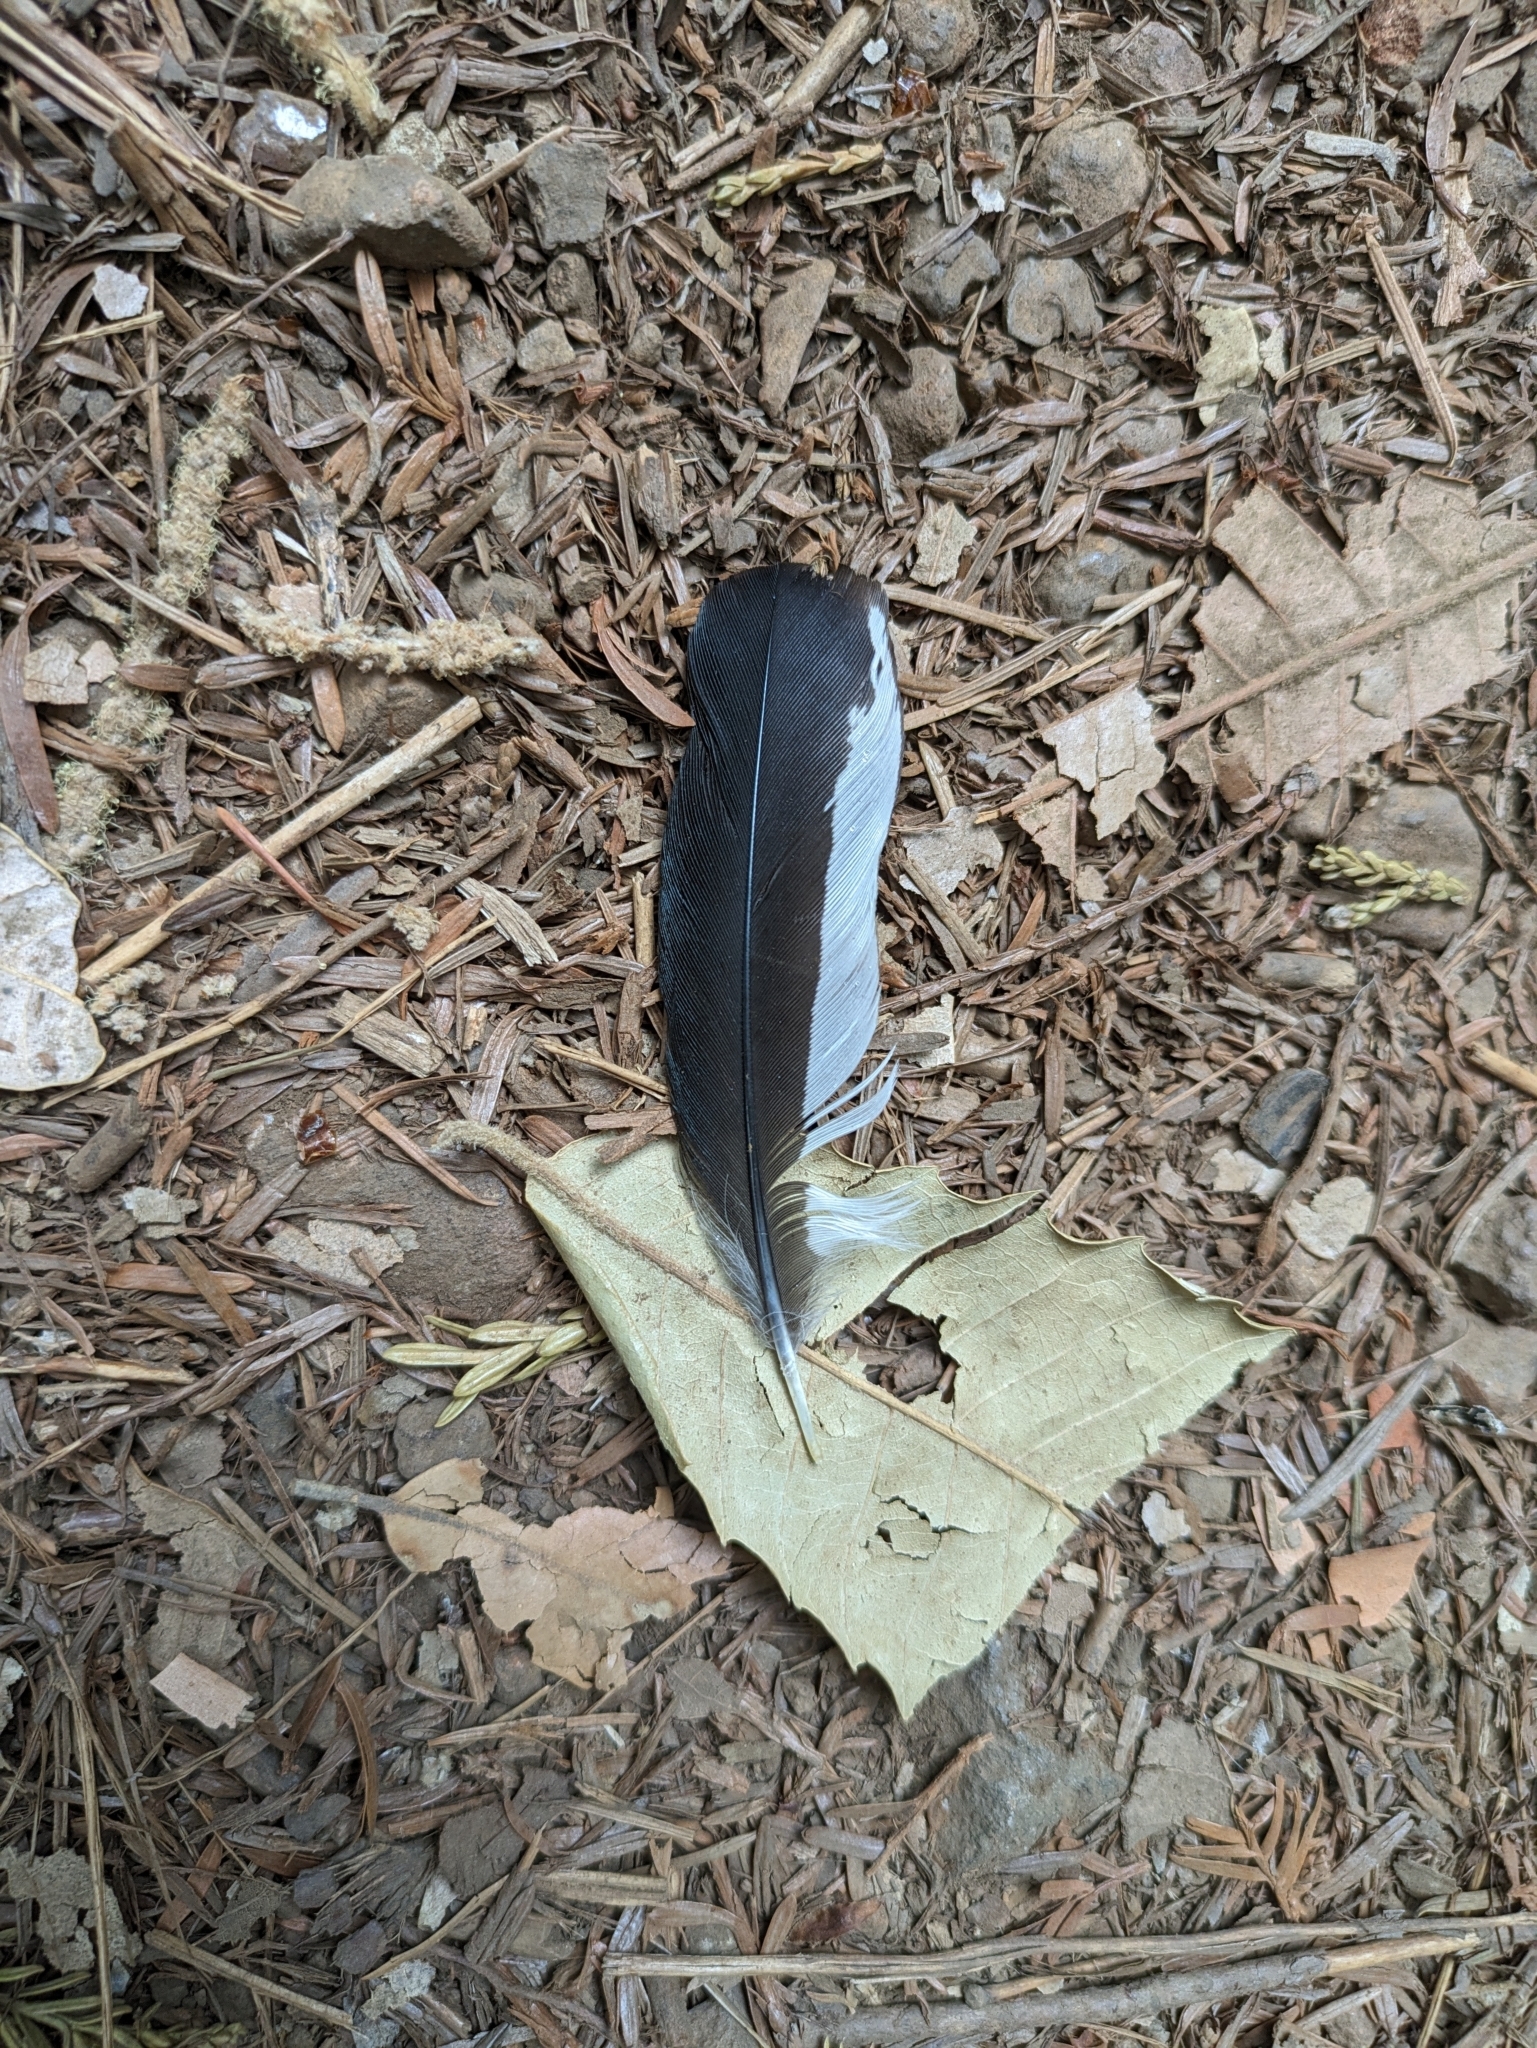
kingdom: Animalia
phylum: Chordata
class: Aves
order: Piciformes
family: Picidae
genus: Melanerpes
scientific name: Melanerpes formicivorus
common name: Acorn woodpecker
